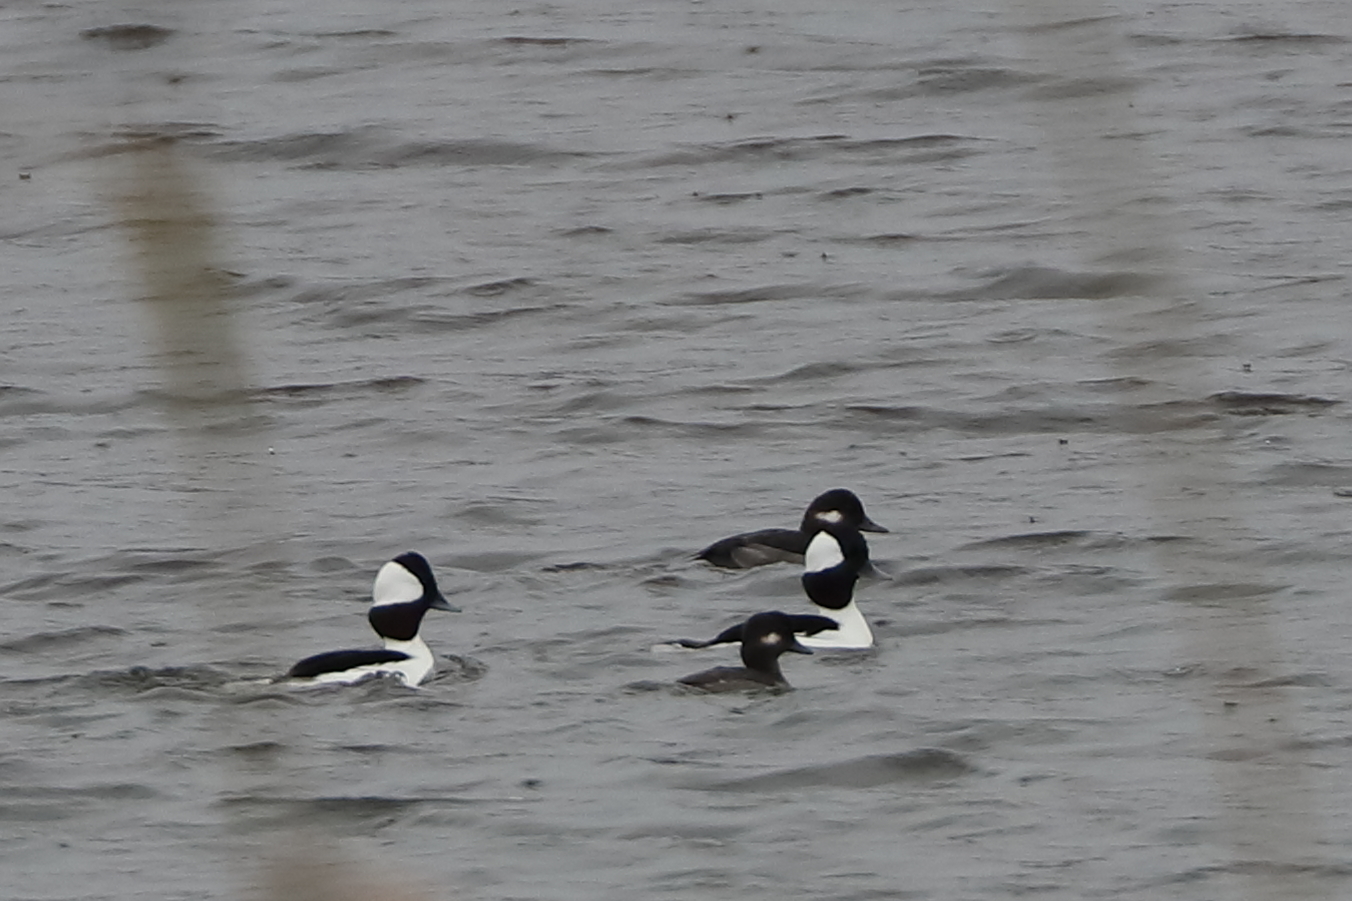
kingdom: Animalia
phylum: Chordata
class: Aves
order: Anseriformes
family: Anatidae
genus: Bucephala
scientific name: Bucephala albeola
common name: Bufflehead
